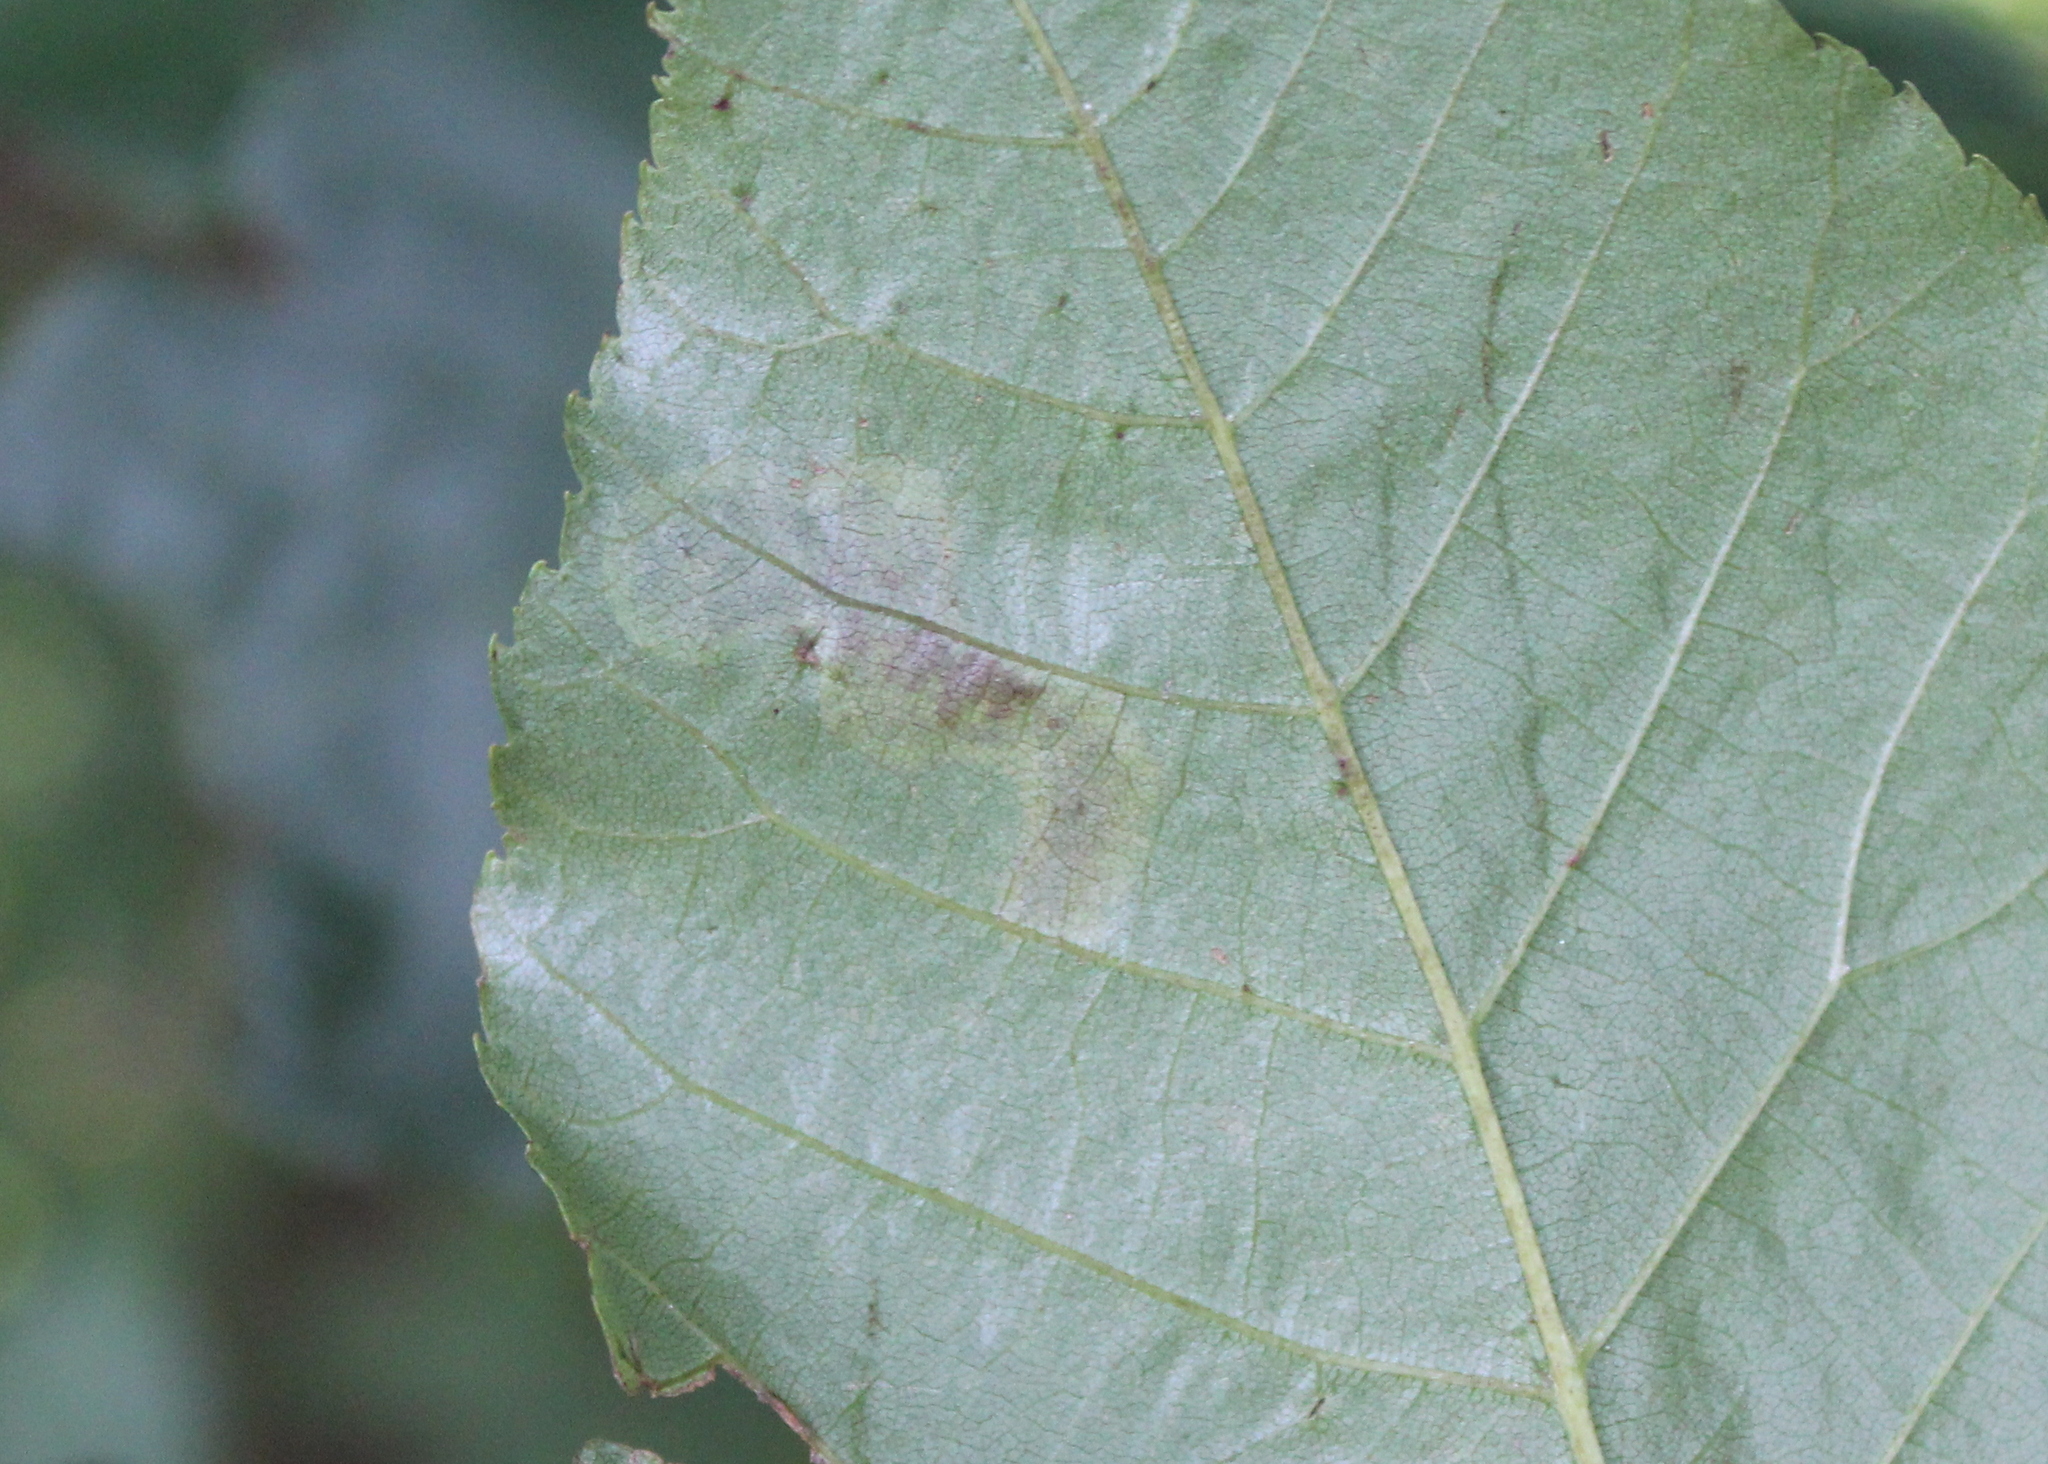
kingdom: Animalia
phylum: Arthropoda
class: Insecta
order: Lepidoptera
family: Gracillariidae
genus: Cameraria
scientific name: Cameraria caryaefoliella
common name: Pecan leafminer moth
